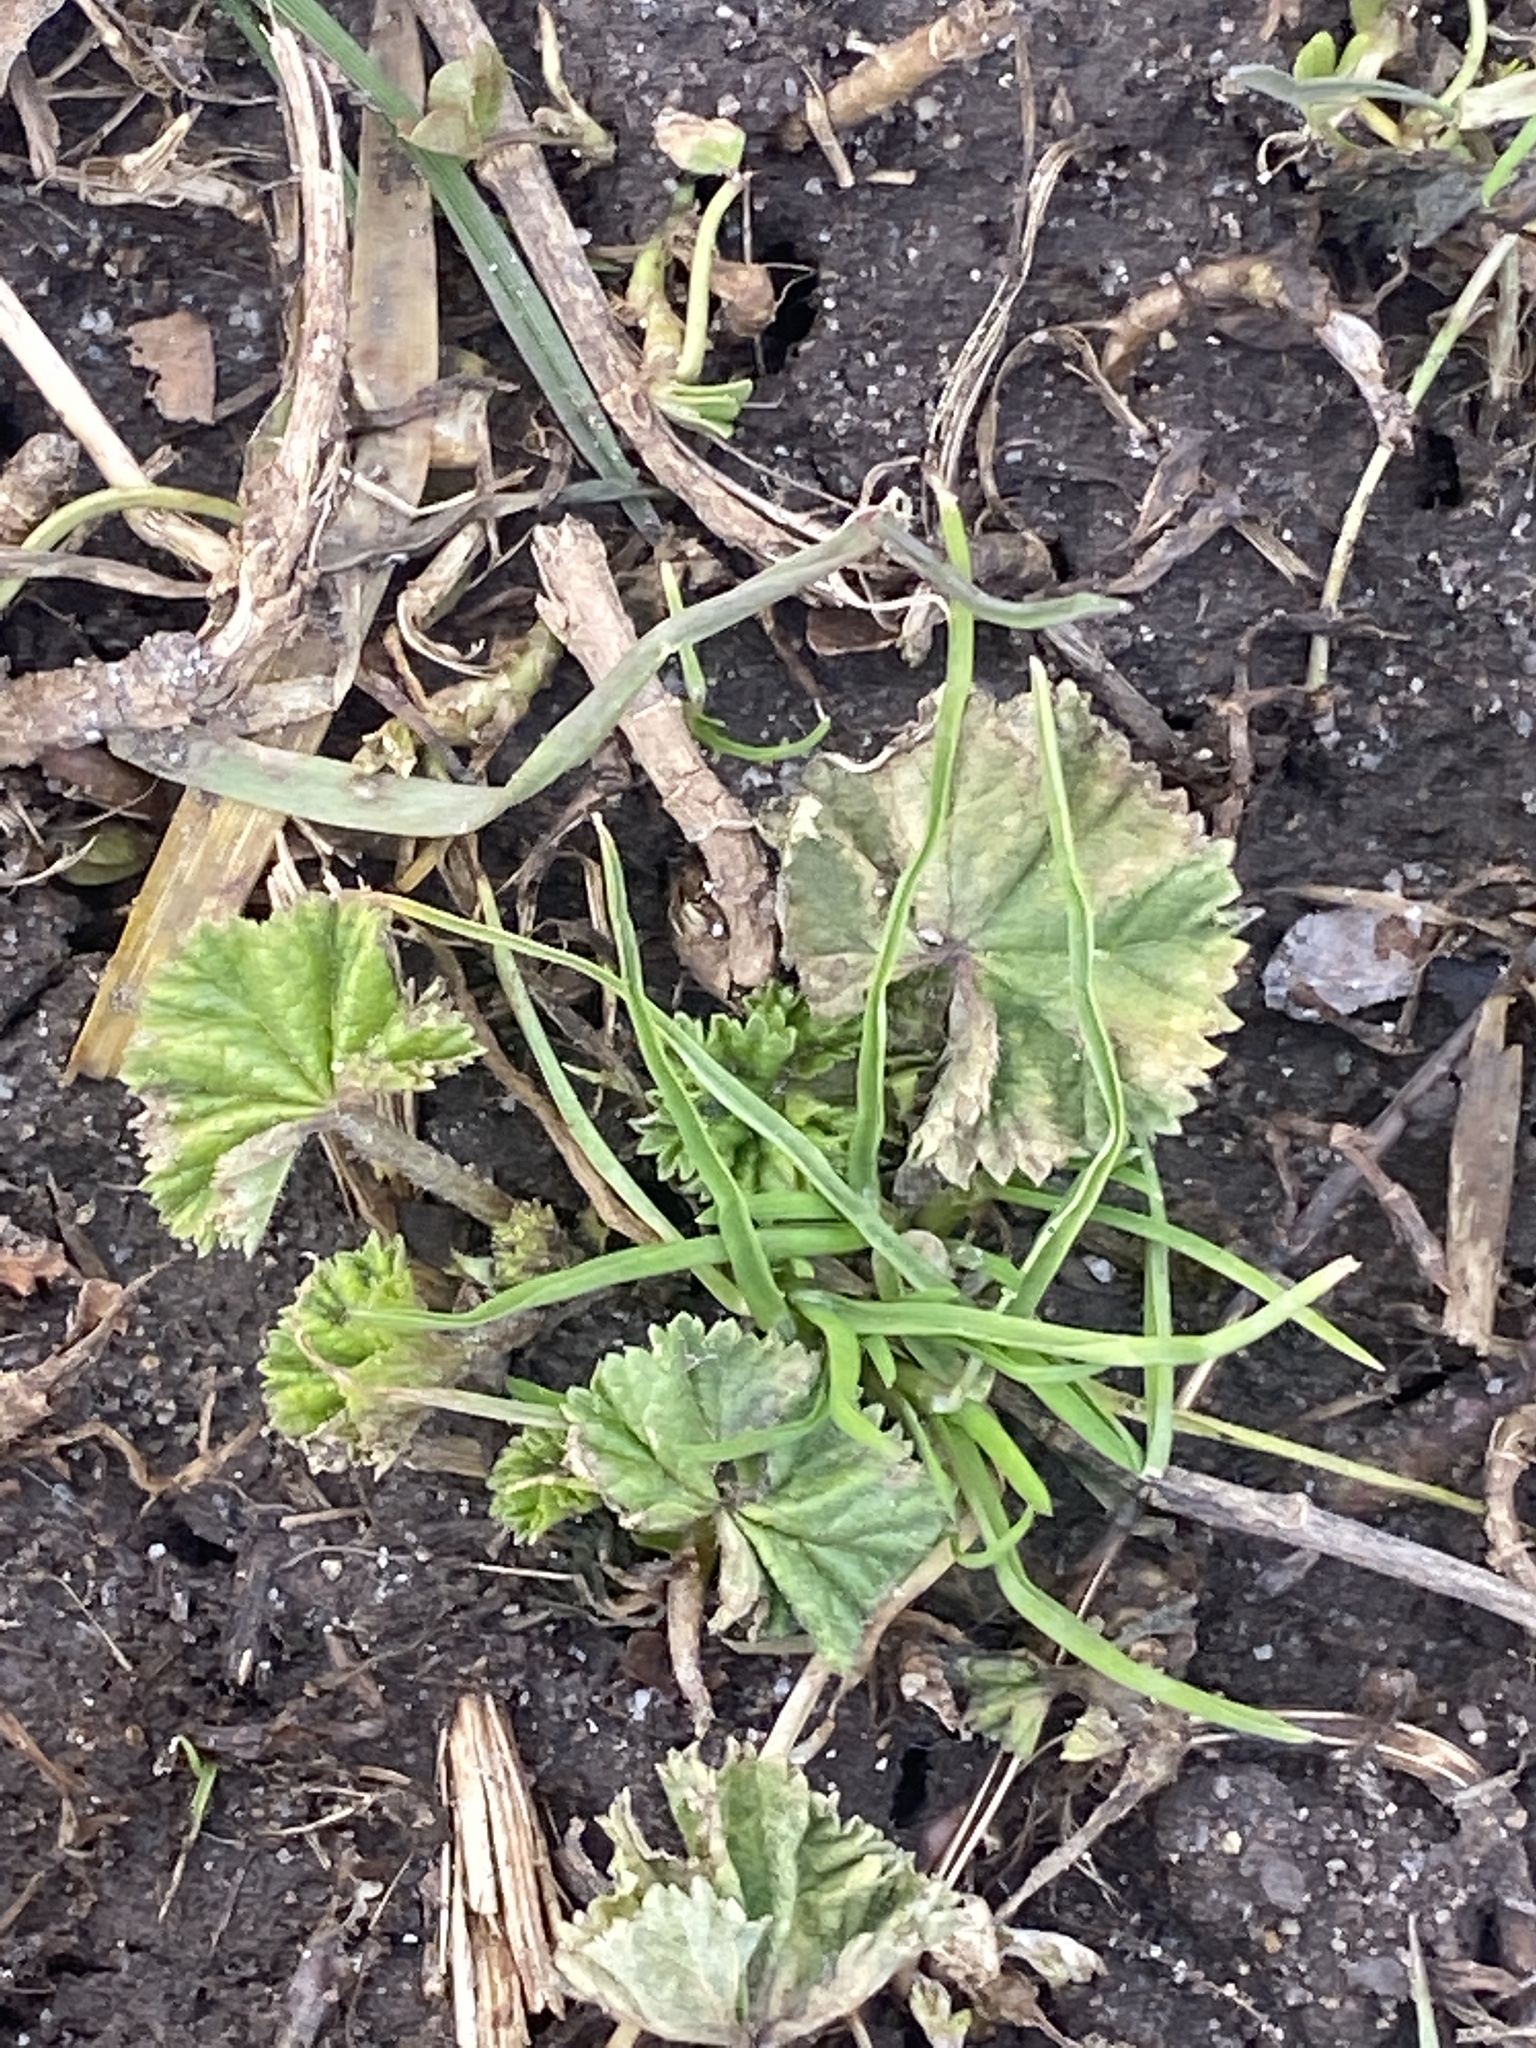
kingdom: Plantae
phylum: Tracheophyta
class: Magnoliopsida
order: Malvales
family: Malvaceae
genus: Malva
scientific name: Malva neglecta
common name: Common mallow
